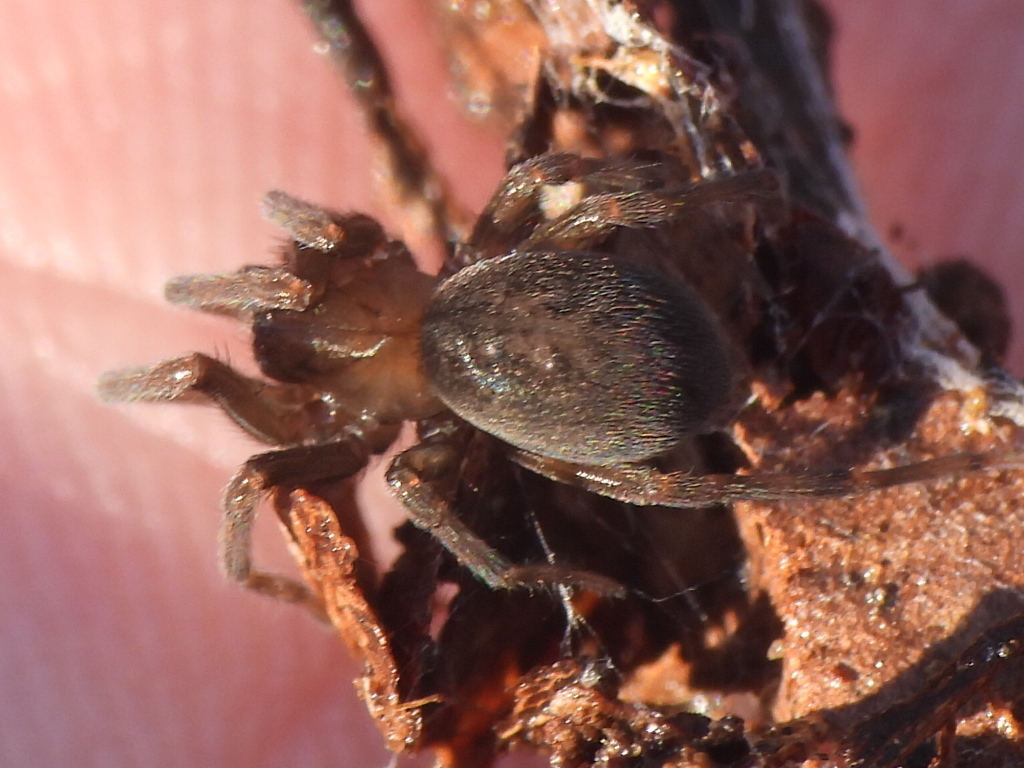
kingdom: Animalia
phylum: Arthropoda
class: Arachnida
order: Araneae
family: Desidae
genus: Metaltella
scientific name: Metaltella simoni
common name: Cribellate spider
